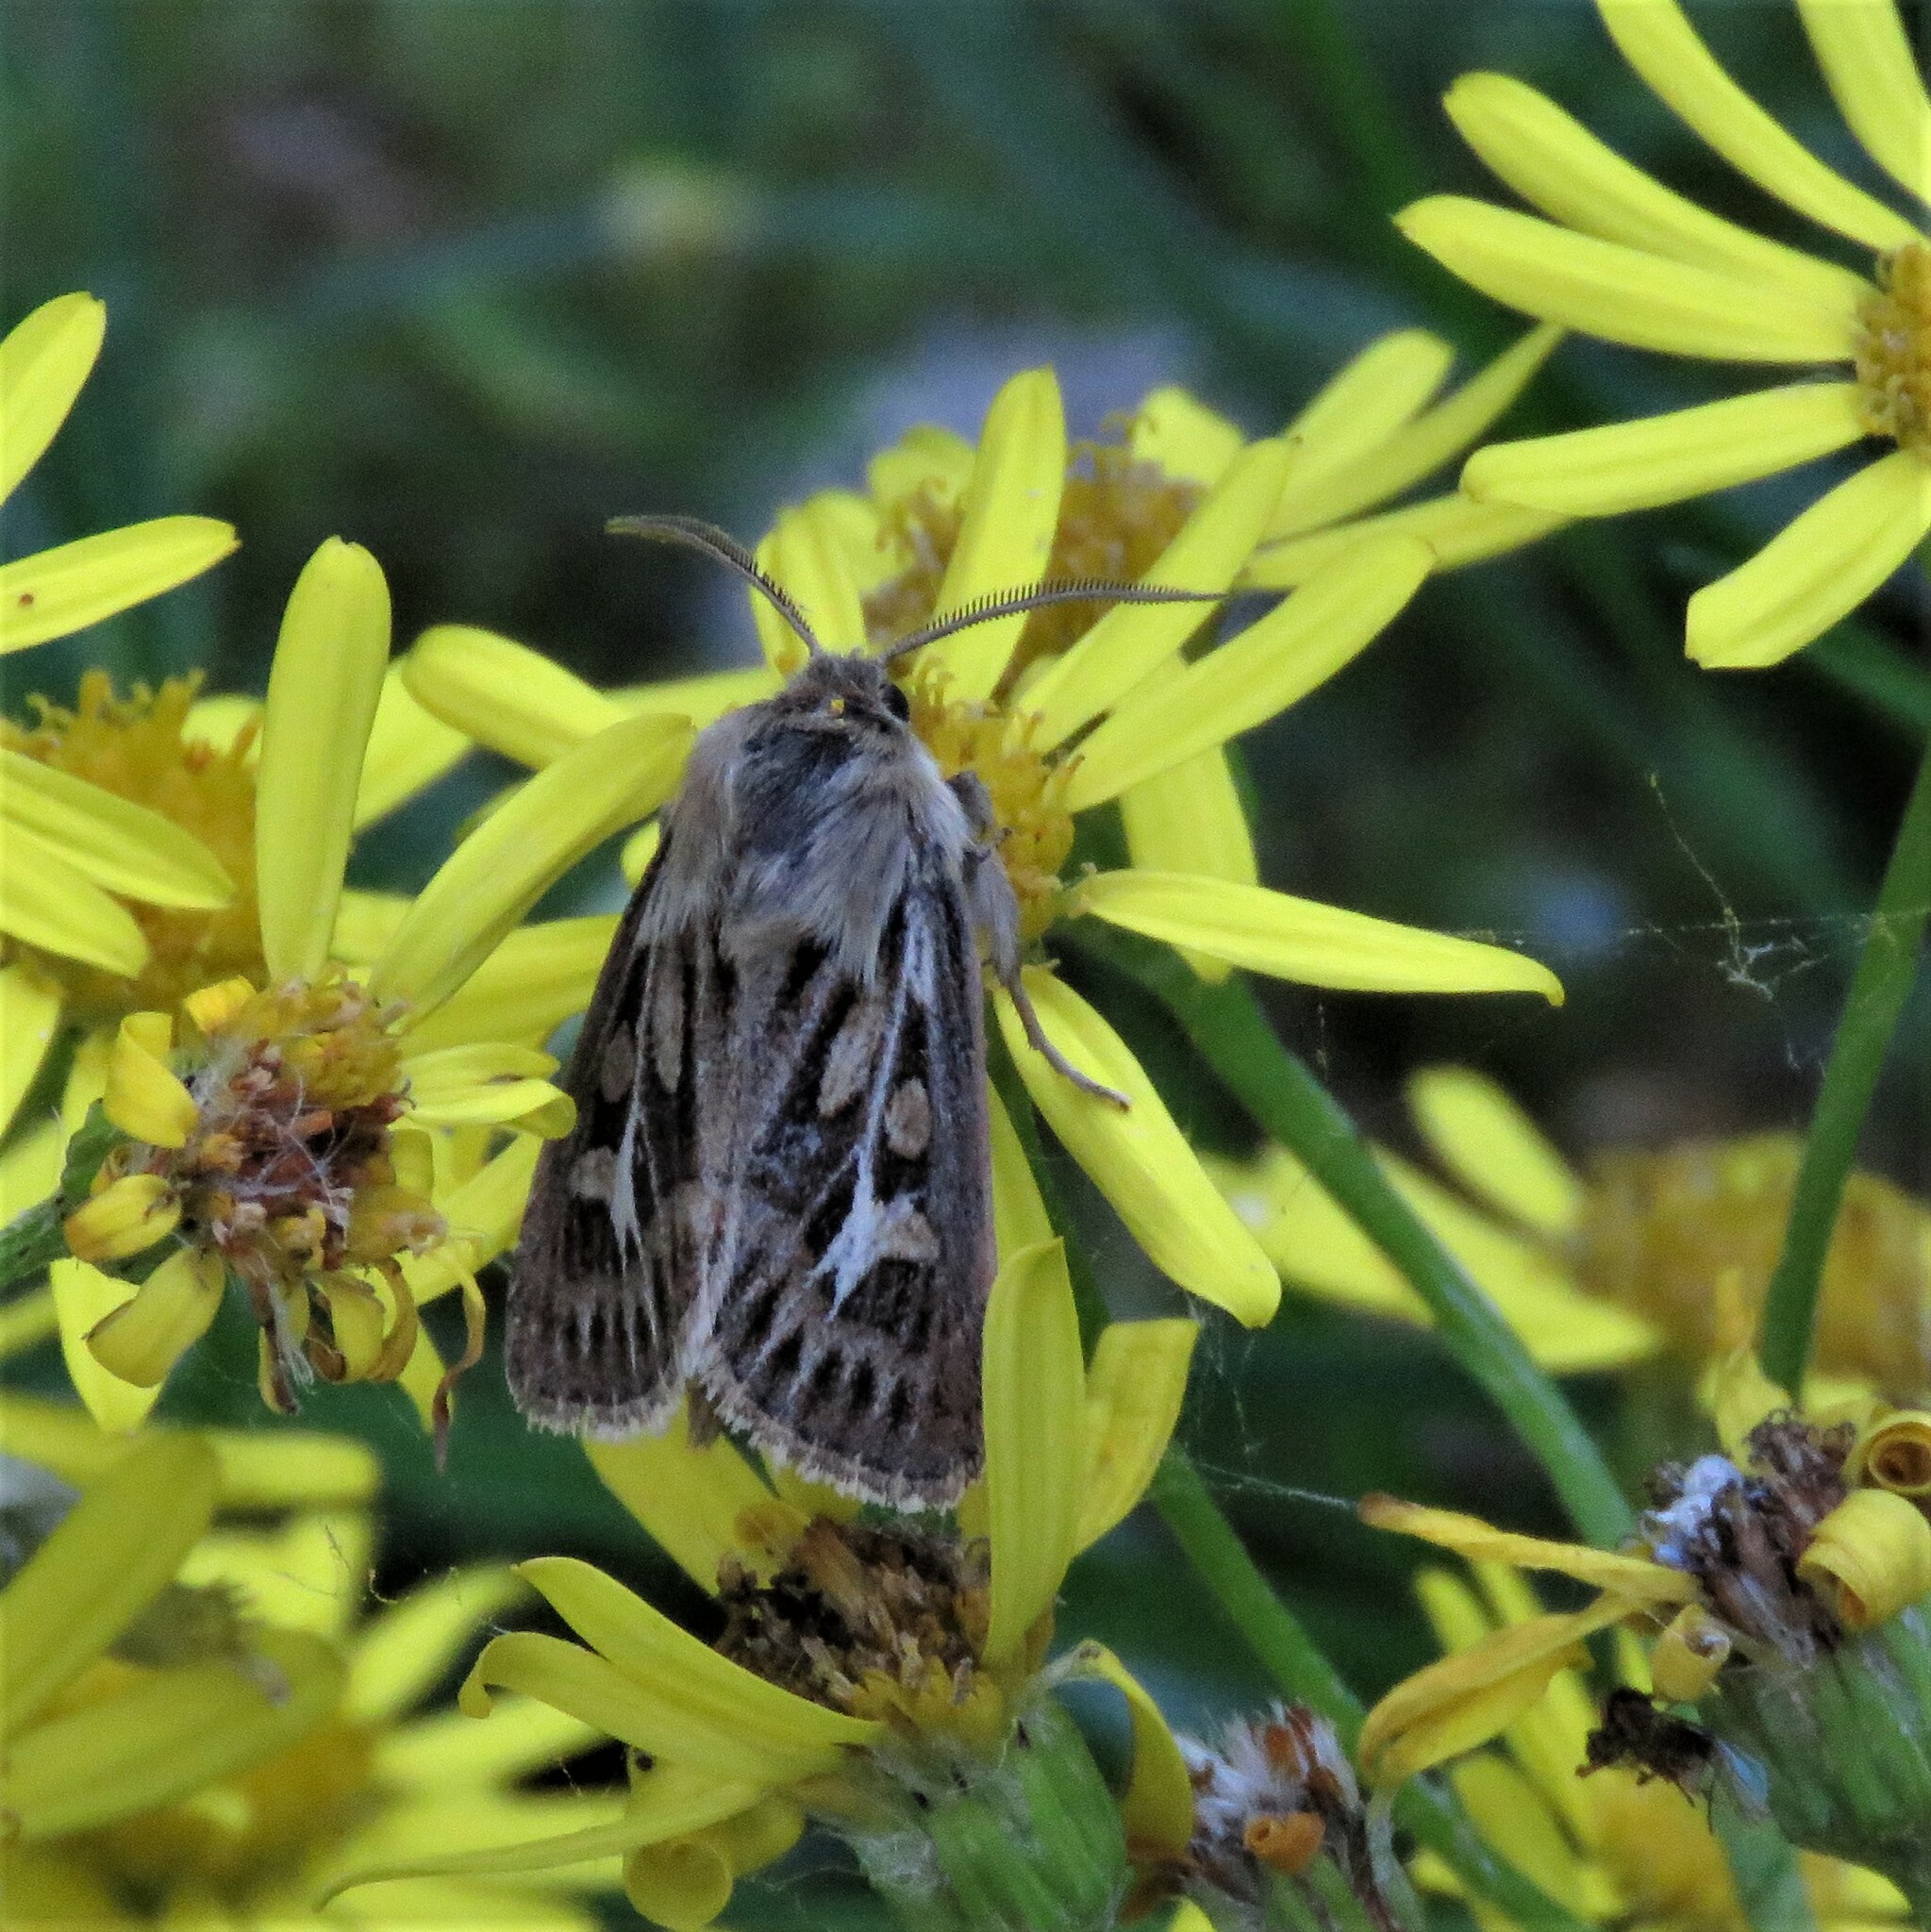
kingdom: Animalia
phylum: Arthropoda
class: Insecta
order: Lepidoptera
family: Noctuidae
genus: Cerapteryx
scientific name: Cerapteryx graminis
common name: Antler moth
